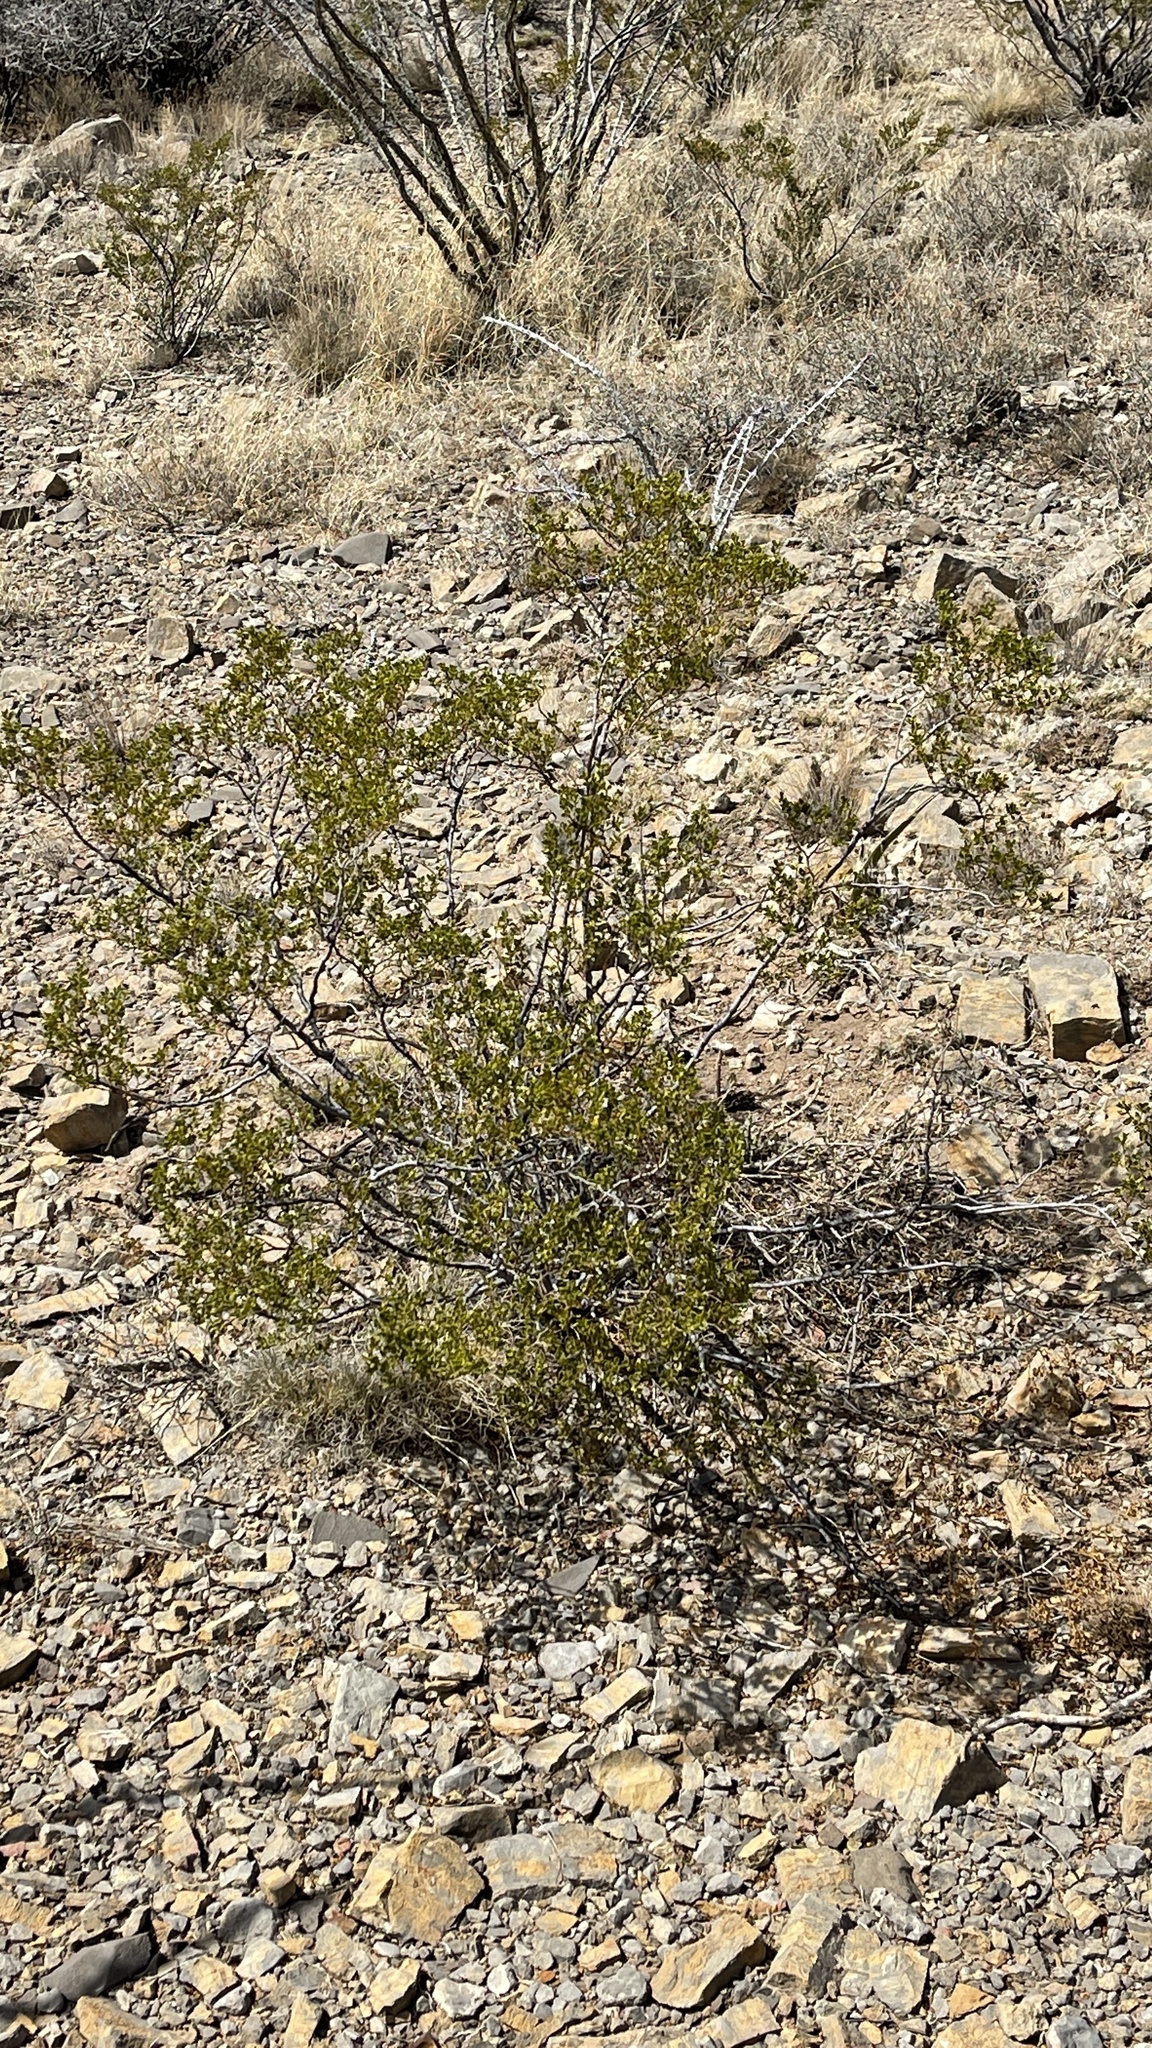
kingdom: Plantae
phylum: Tracheophyta
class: Magnoliopsida
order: Zygophyllales
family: Zygophyllaceae
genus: Larrea
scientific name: Larrea tridentata
